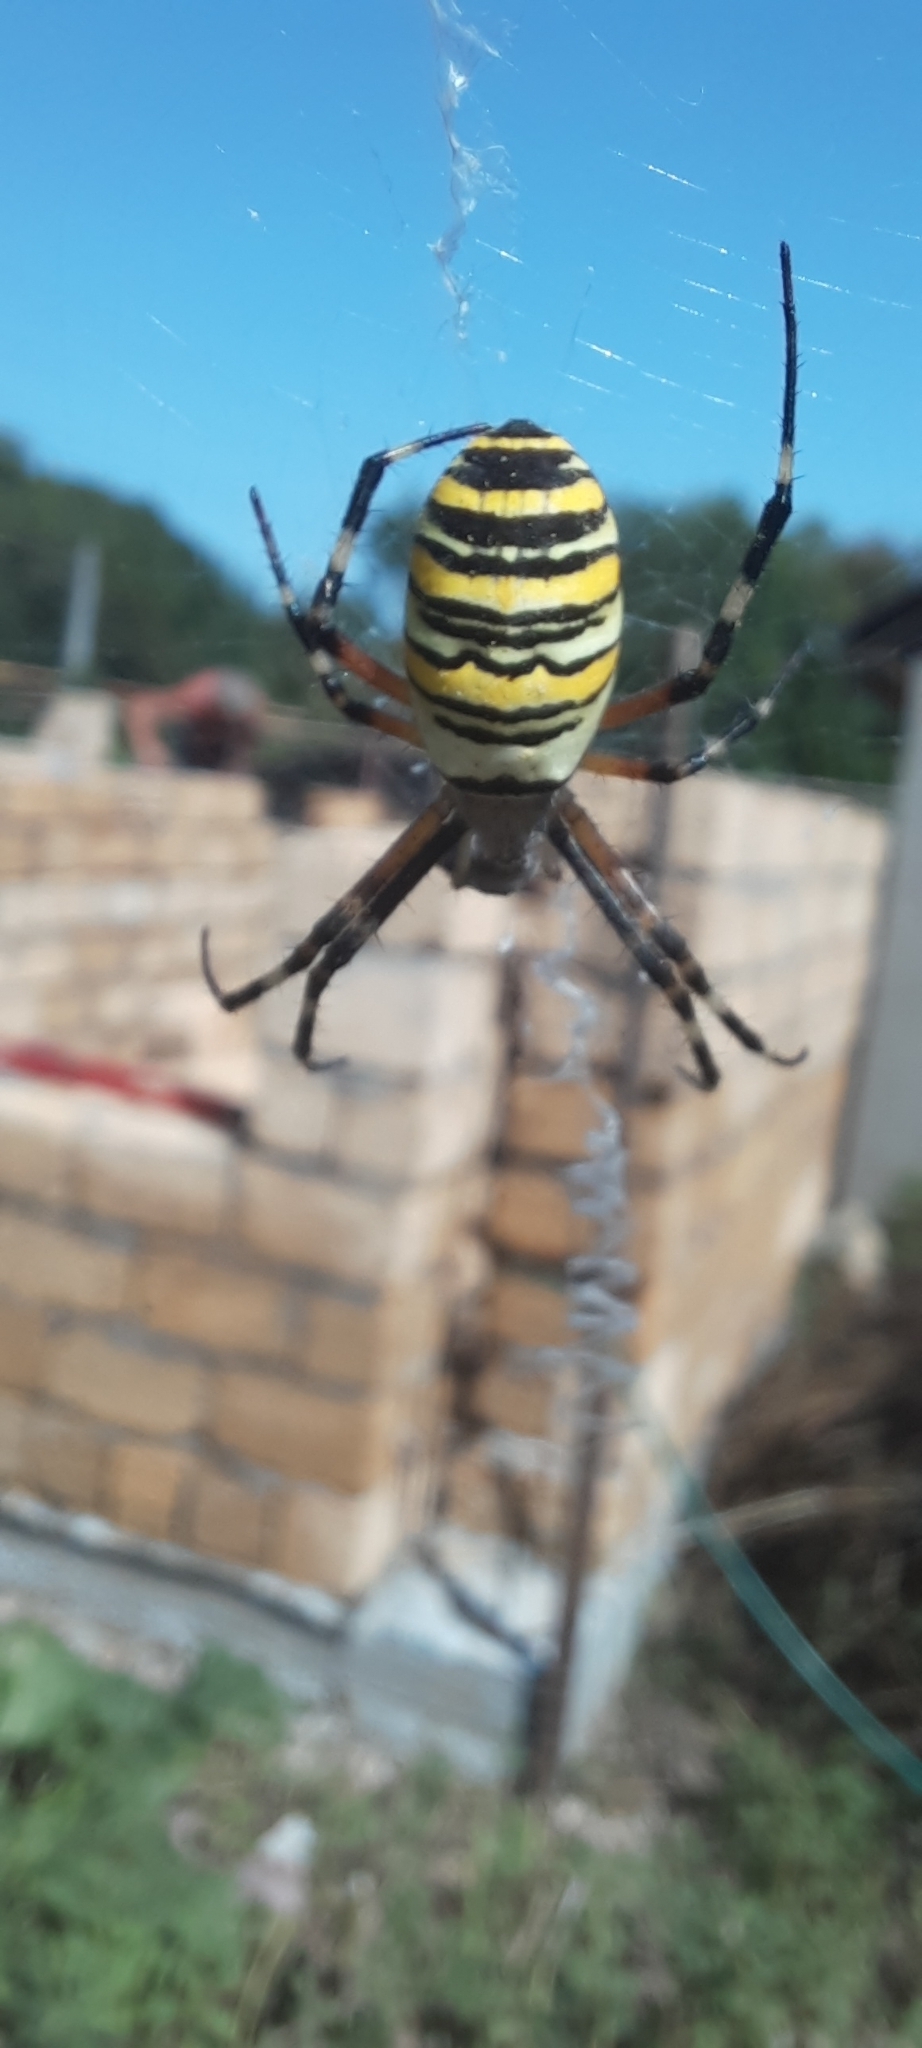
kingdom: Animalia
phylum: Arthropoda
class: Arachnida
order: Araneae
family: Araneidae
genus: Argiope
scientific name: Argiope bruennichi
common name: Wasp spider
